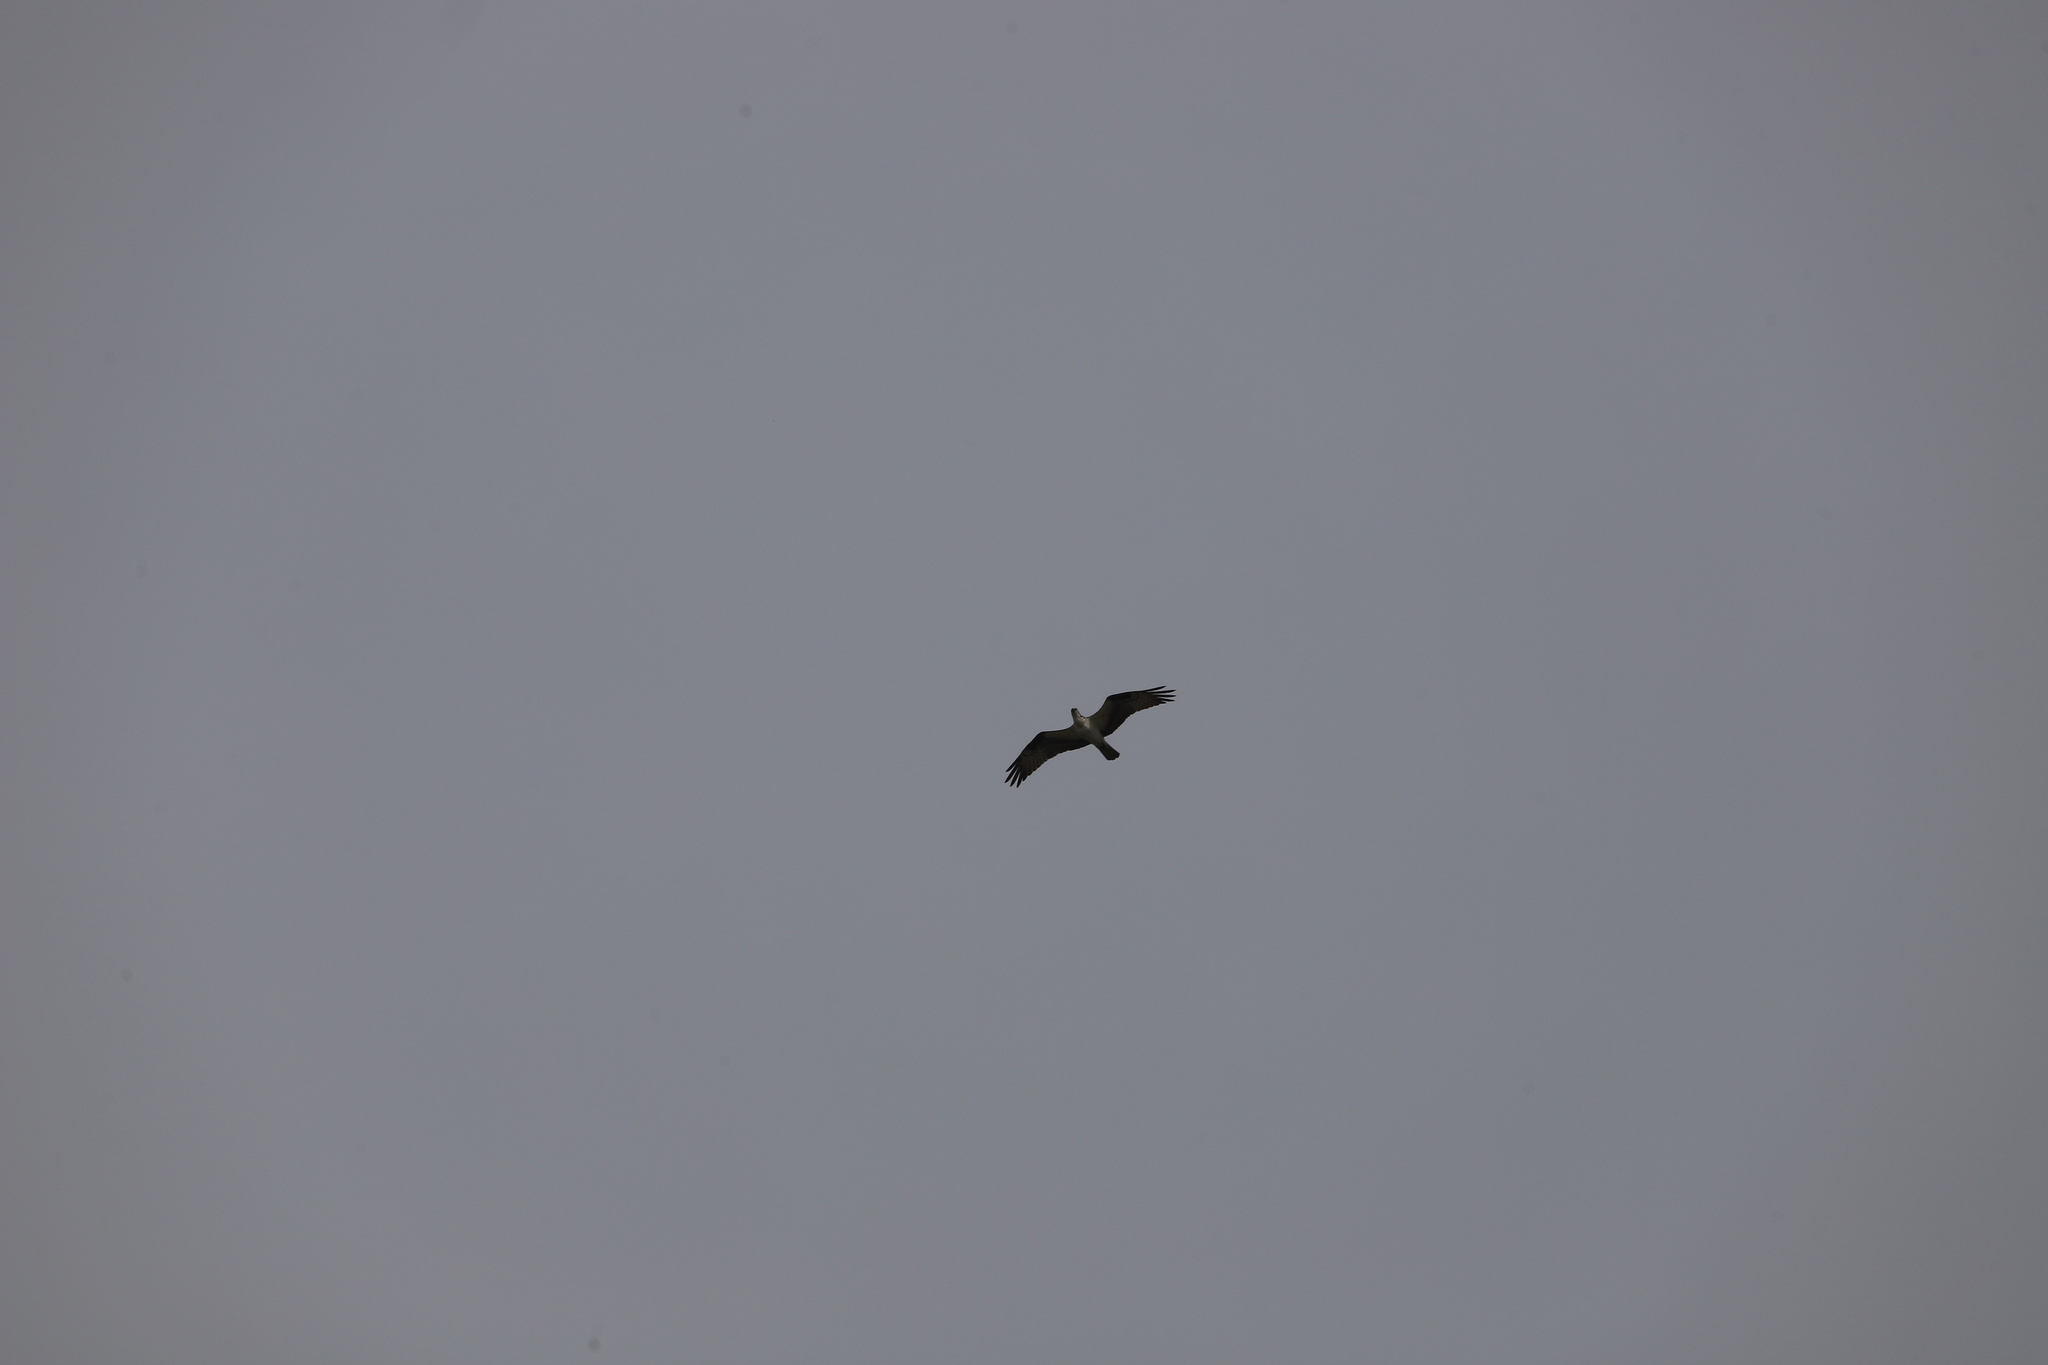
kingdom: Animalia
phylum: Chordata
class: Aves
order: Accipitriformes
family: Pandionidae
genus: Pandion
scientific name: Pandion haliaetus
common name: Osprey
